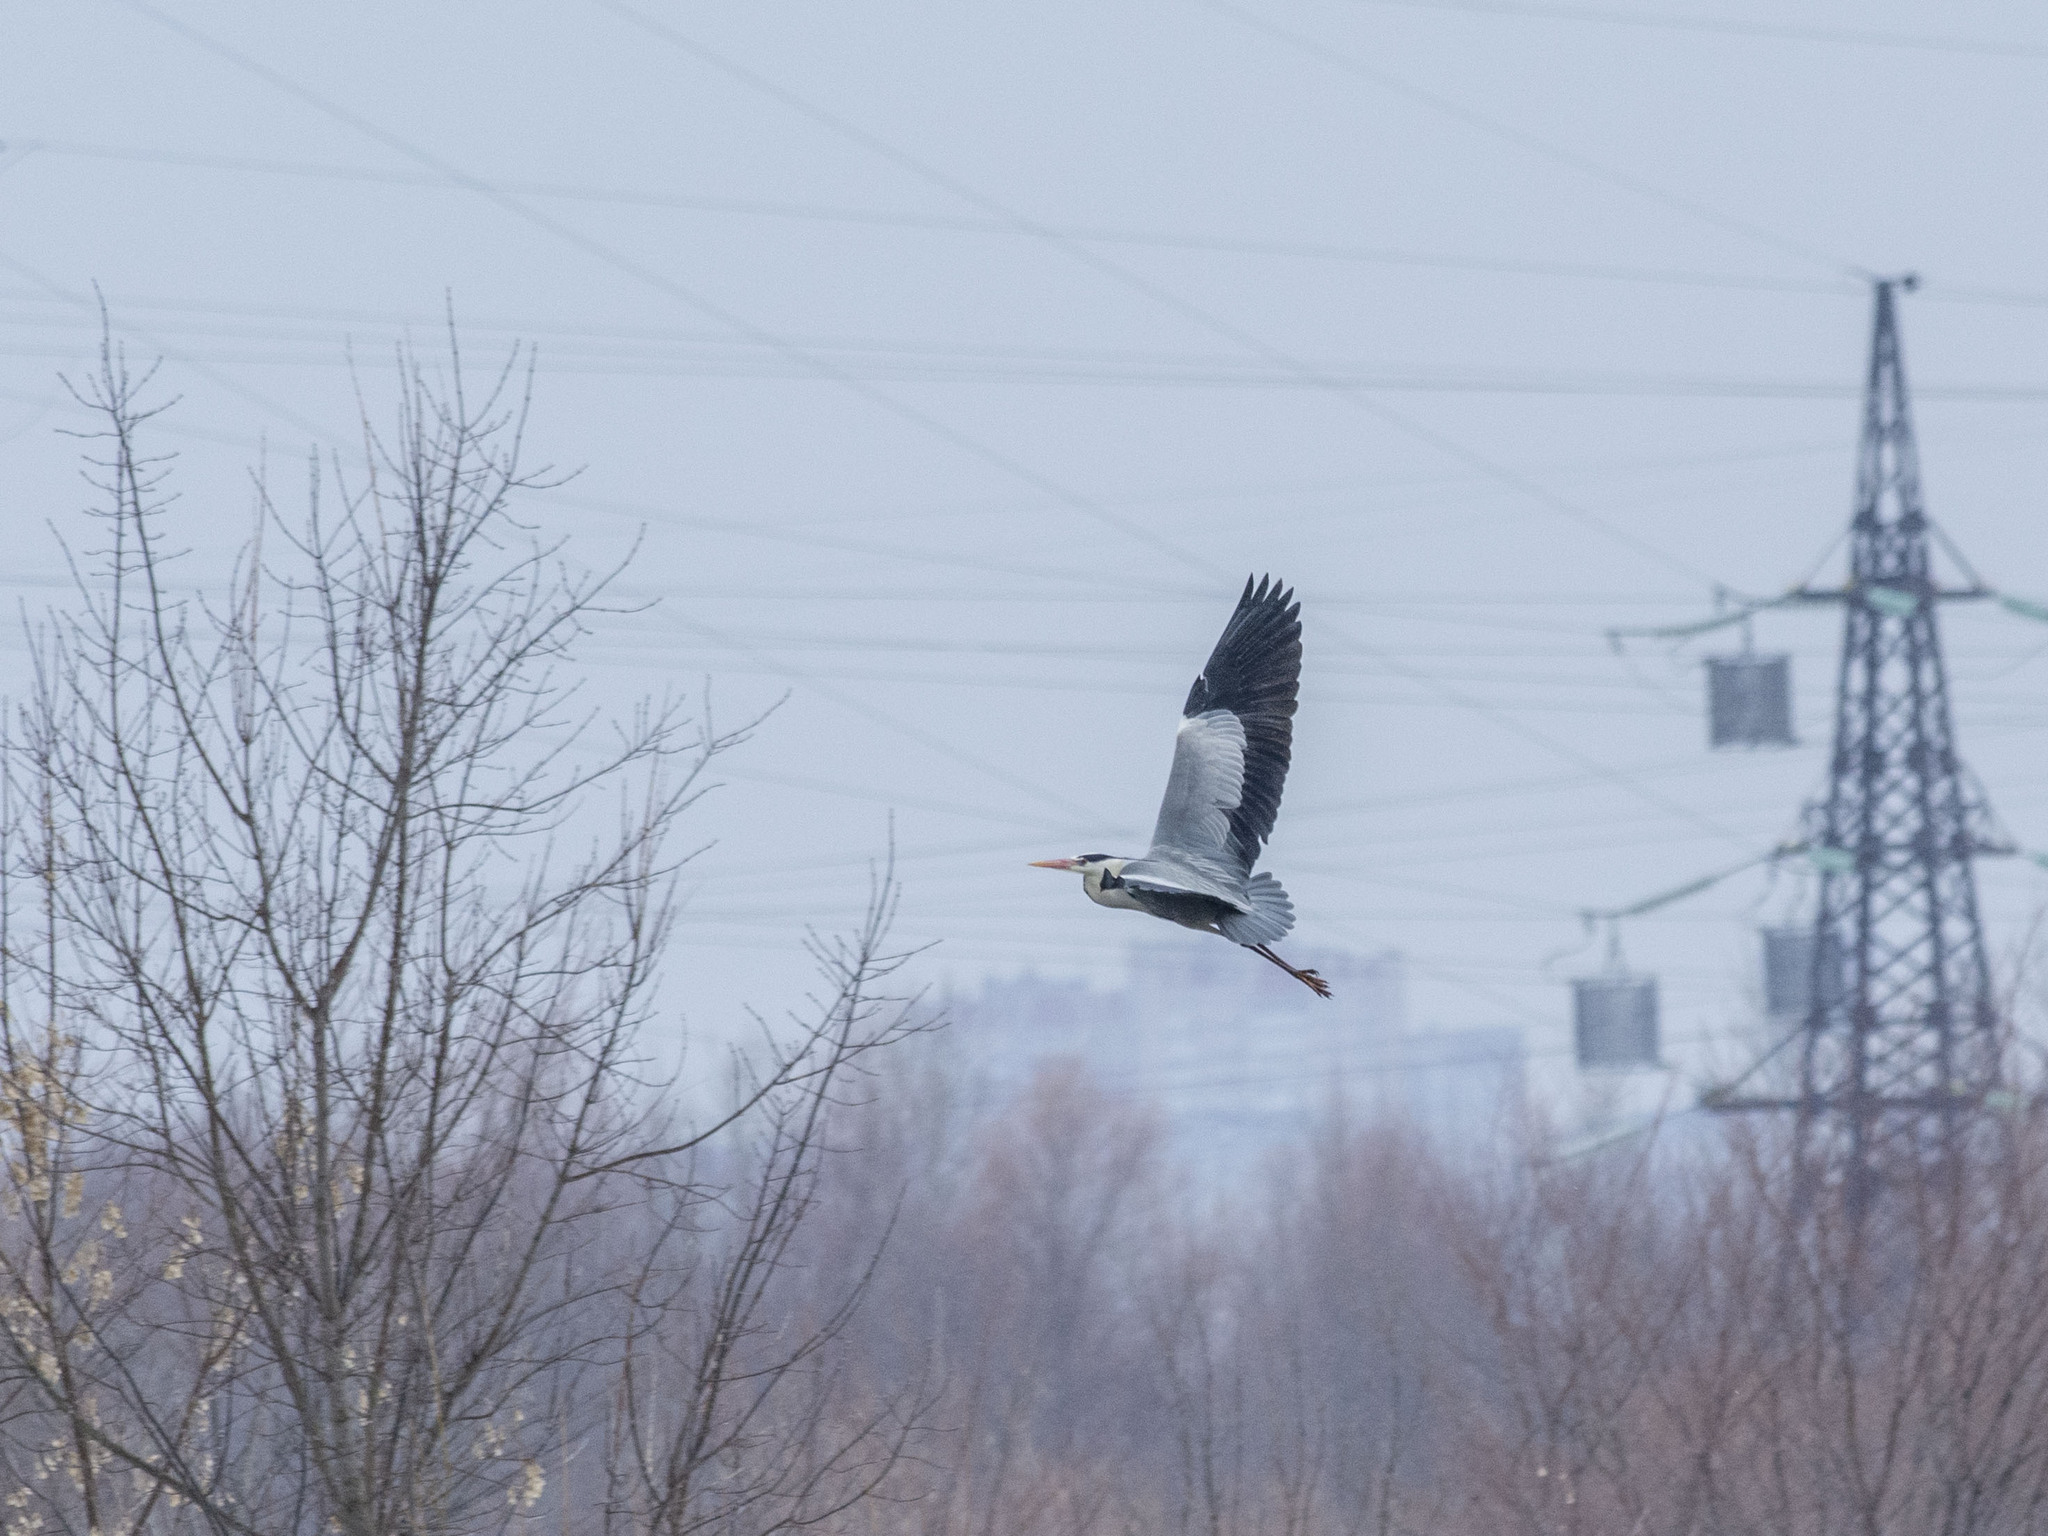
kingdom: Animalia
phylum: Chordata
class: Aves
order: Pelecaniformes
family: Ardeidae
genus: Ardea
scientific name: Ardea cinerea
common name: Grey heron
